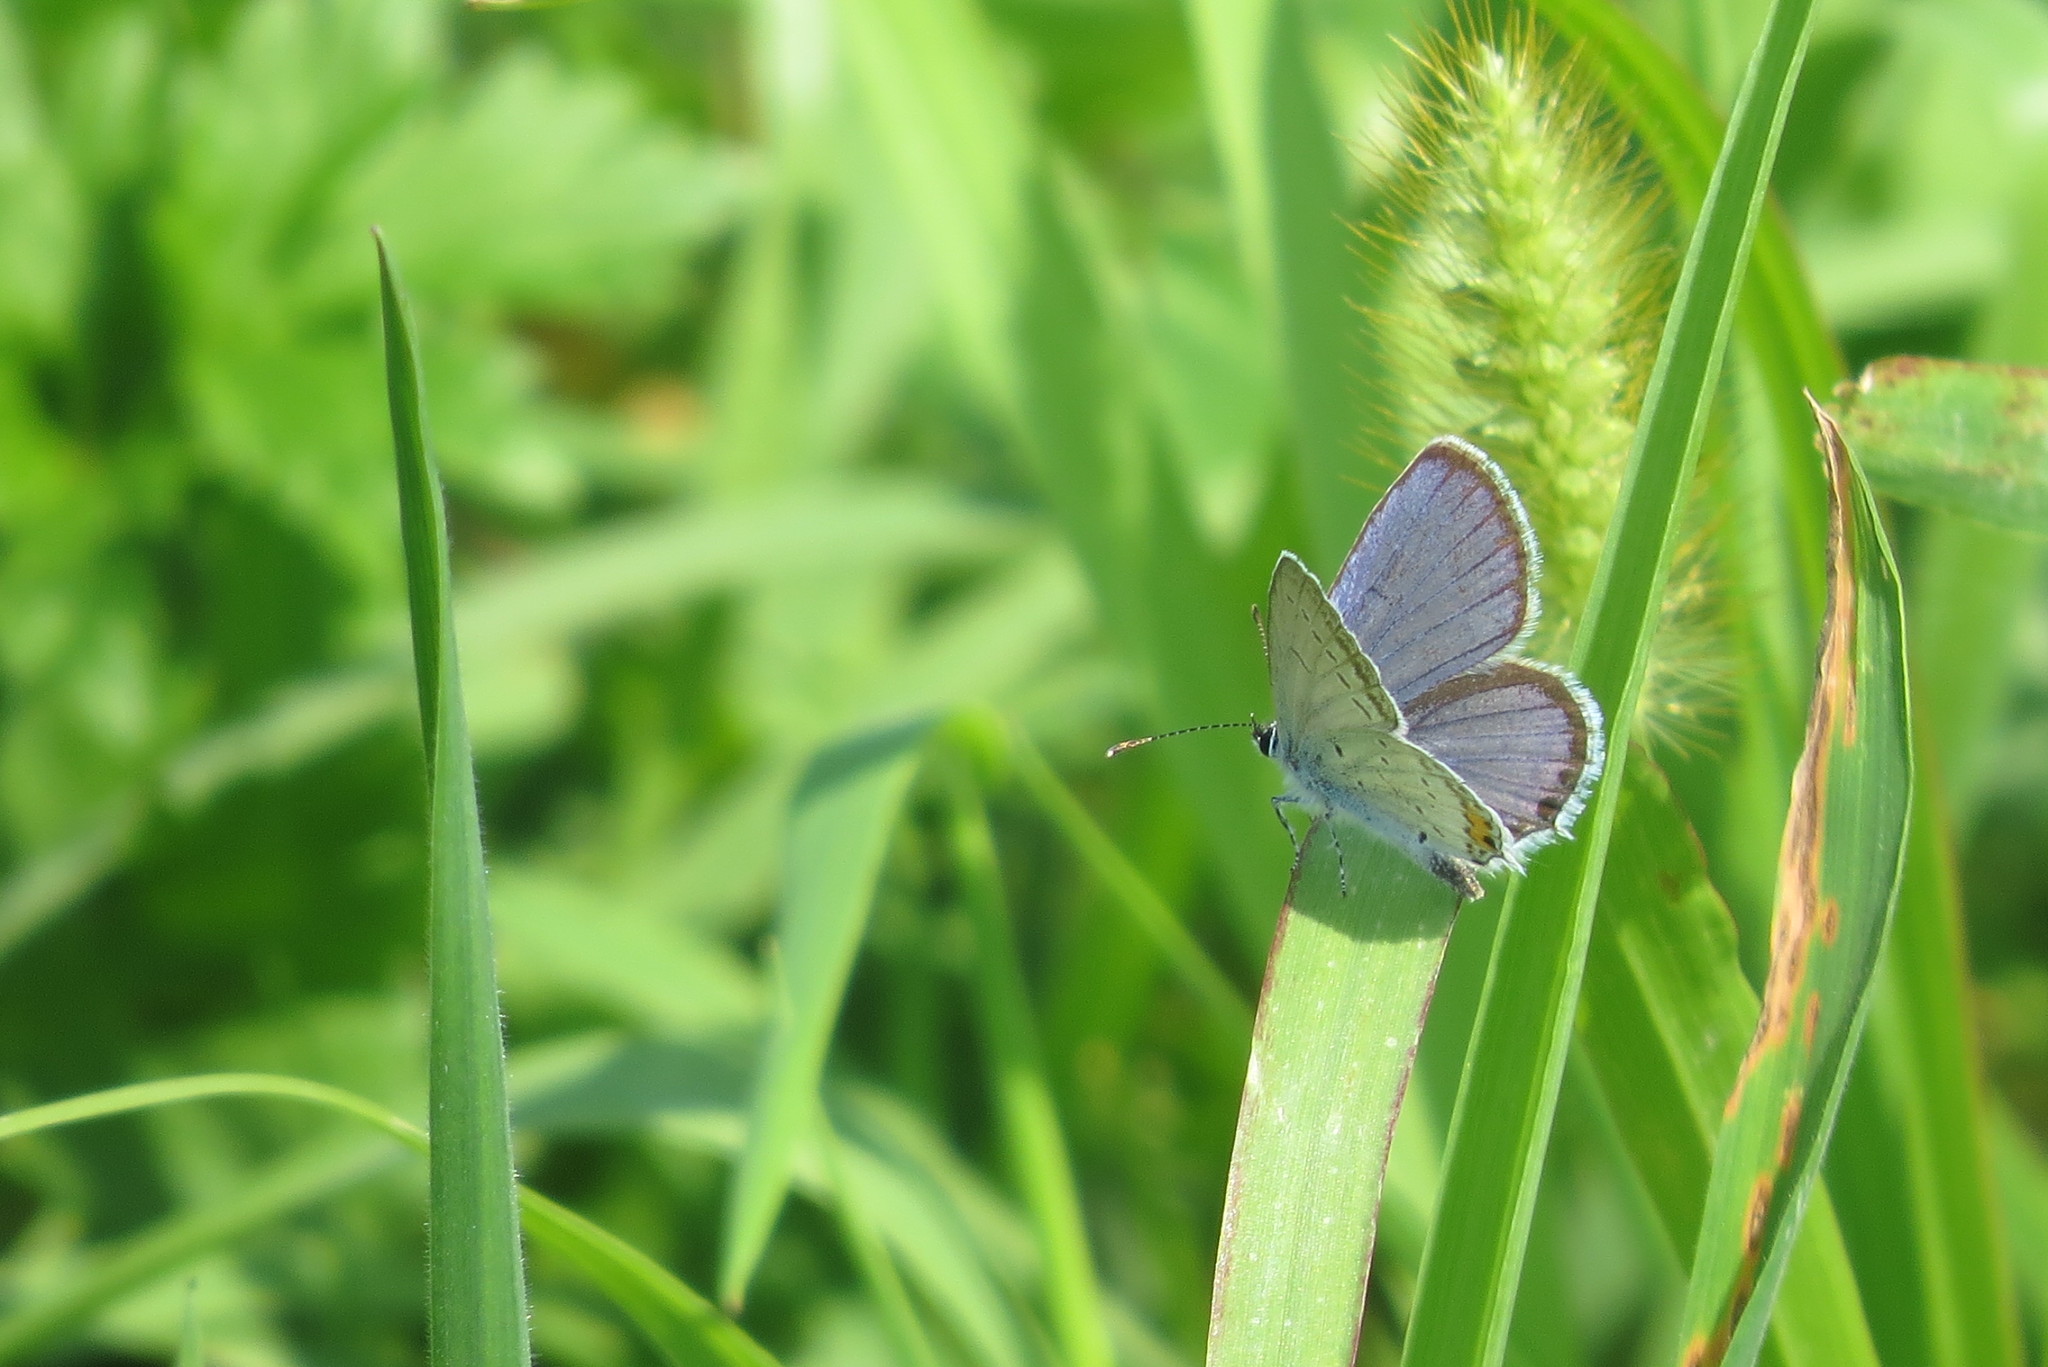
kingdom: Animalia
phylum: Arthropoda
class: Insecta
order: Lepidoptera
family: Lycaenidae
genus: Elkalyce
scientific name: Elkalyce argiades
